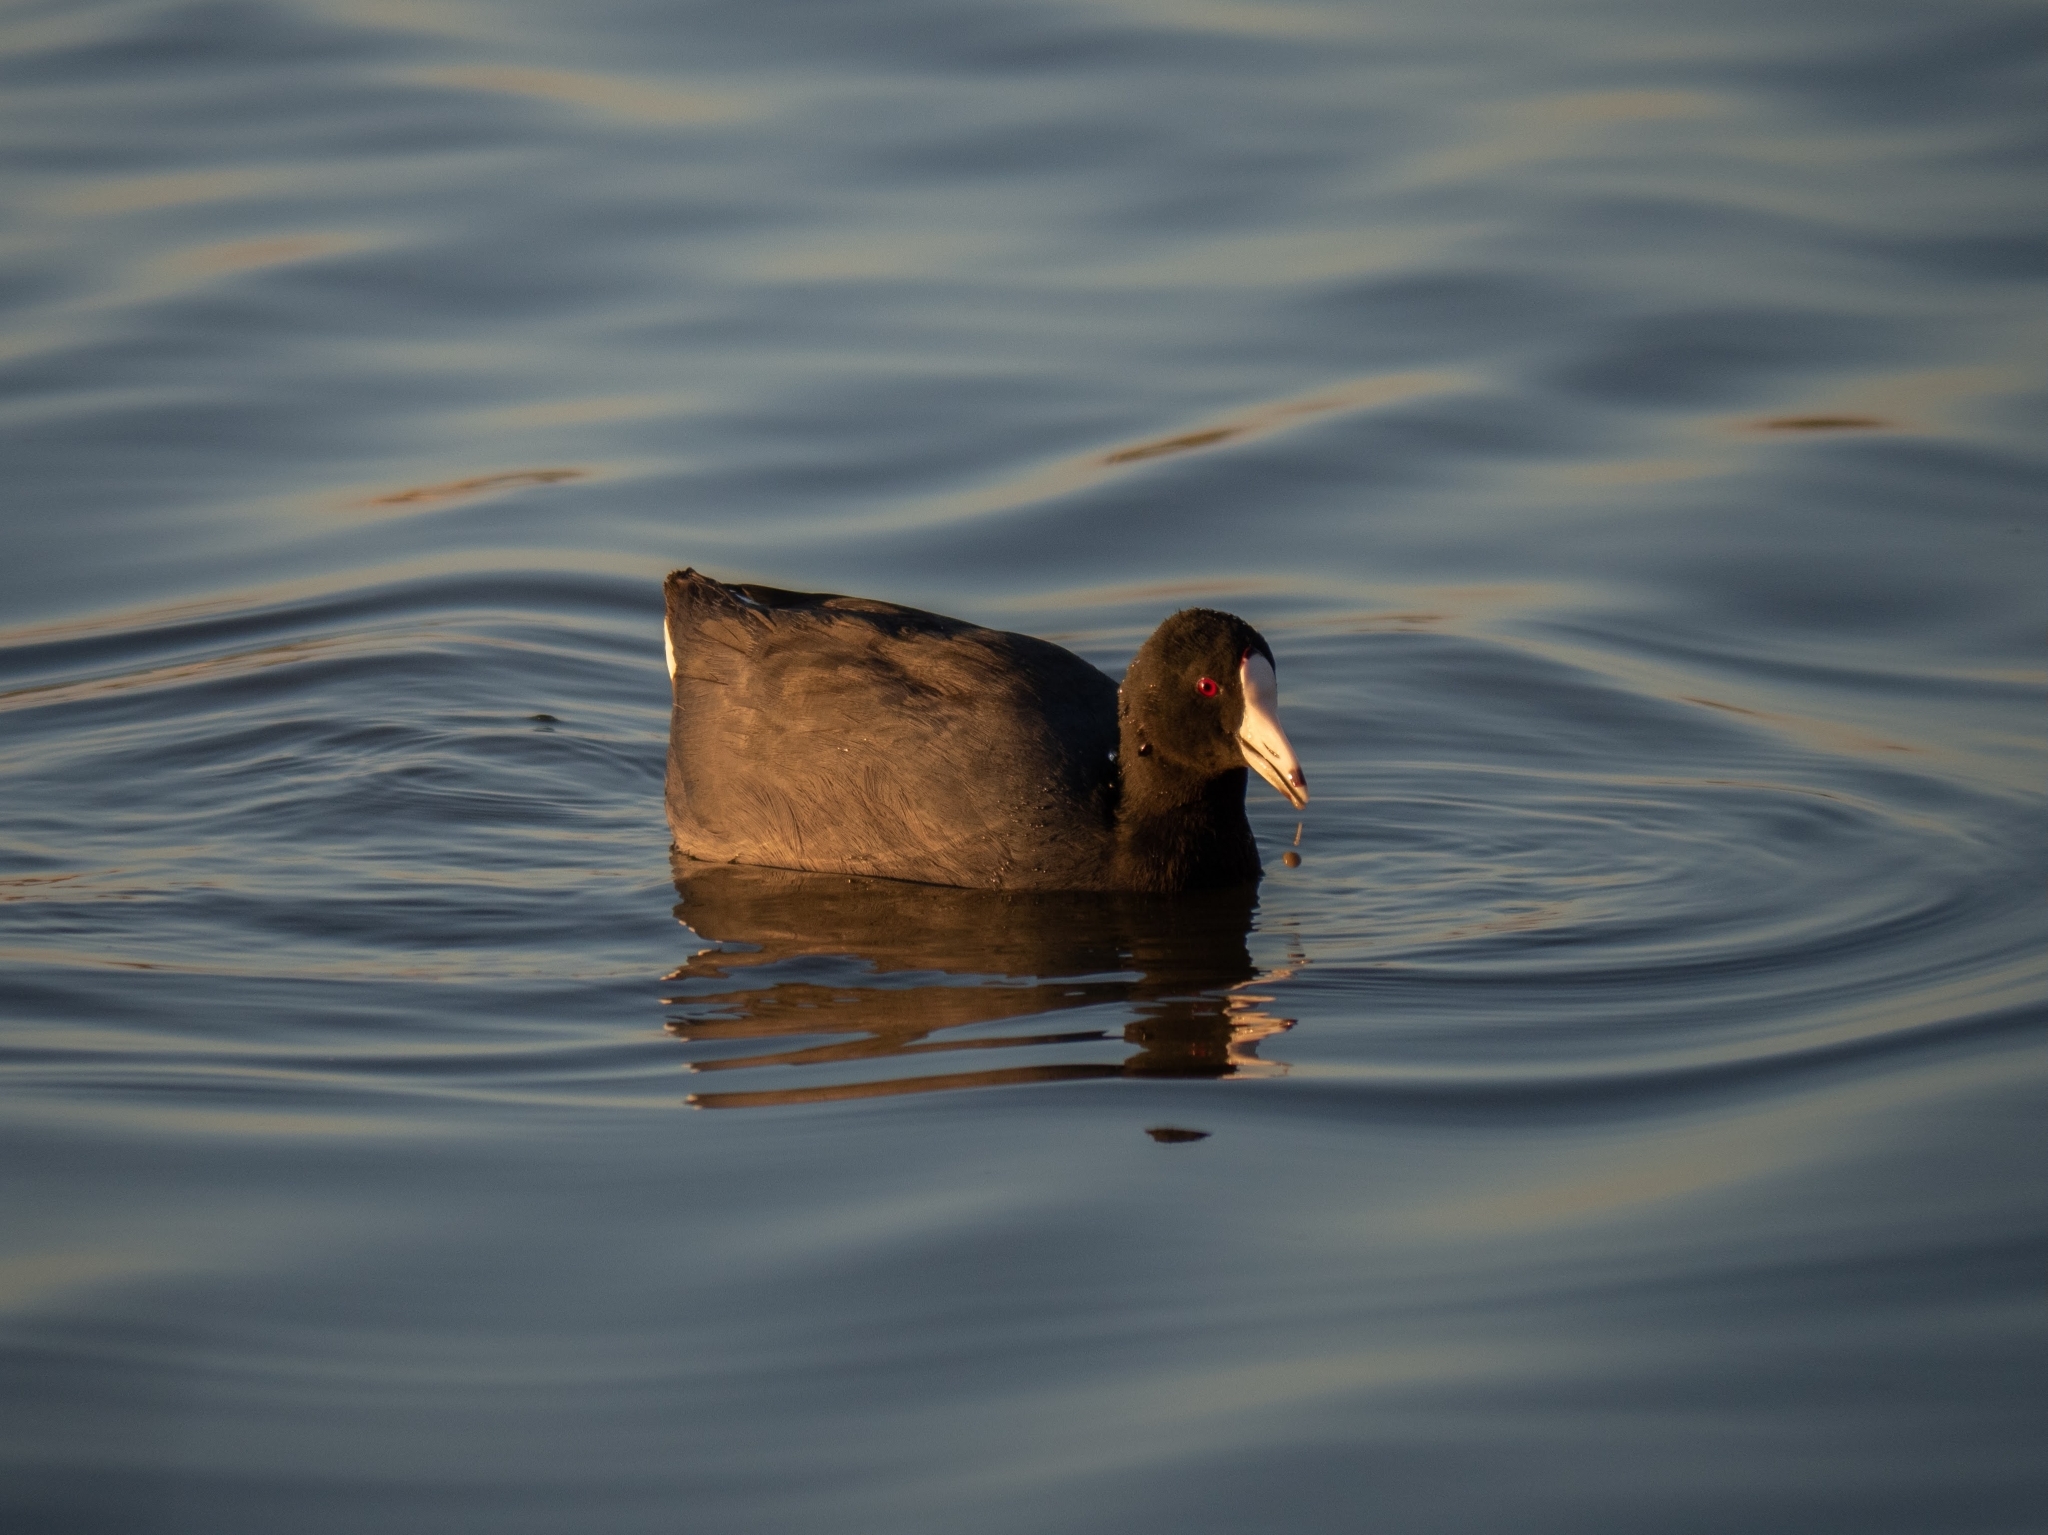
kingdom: Animalia
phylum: Chordata
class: Aves
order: Gruiformes
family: Rallidae
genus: Fulica
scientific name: Fulica americana
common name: American coot
